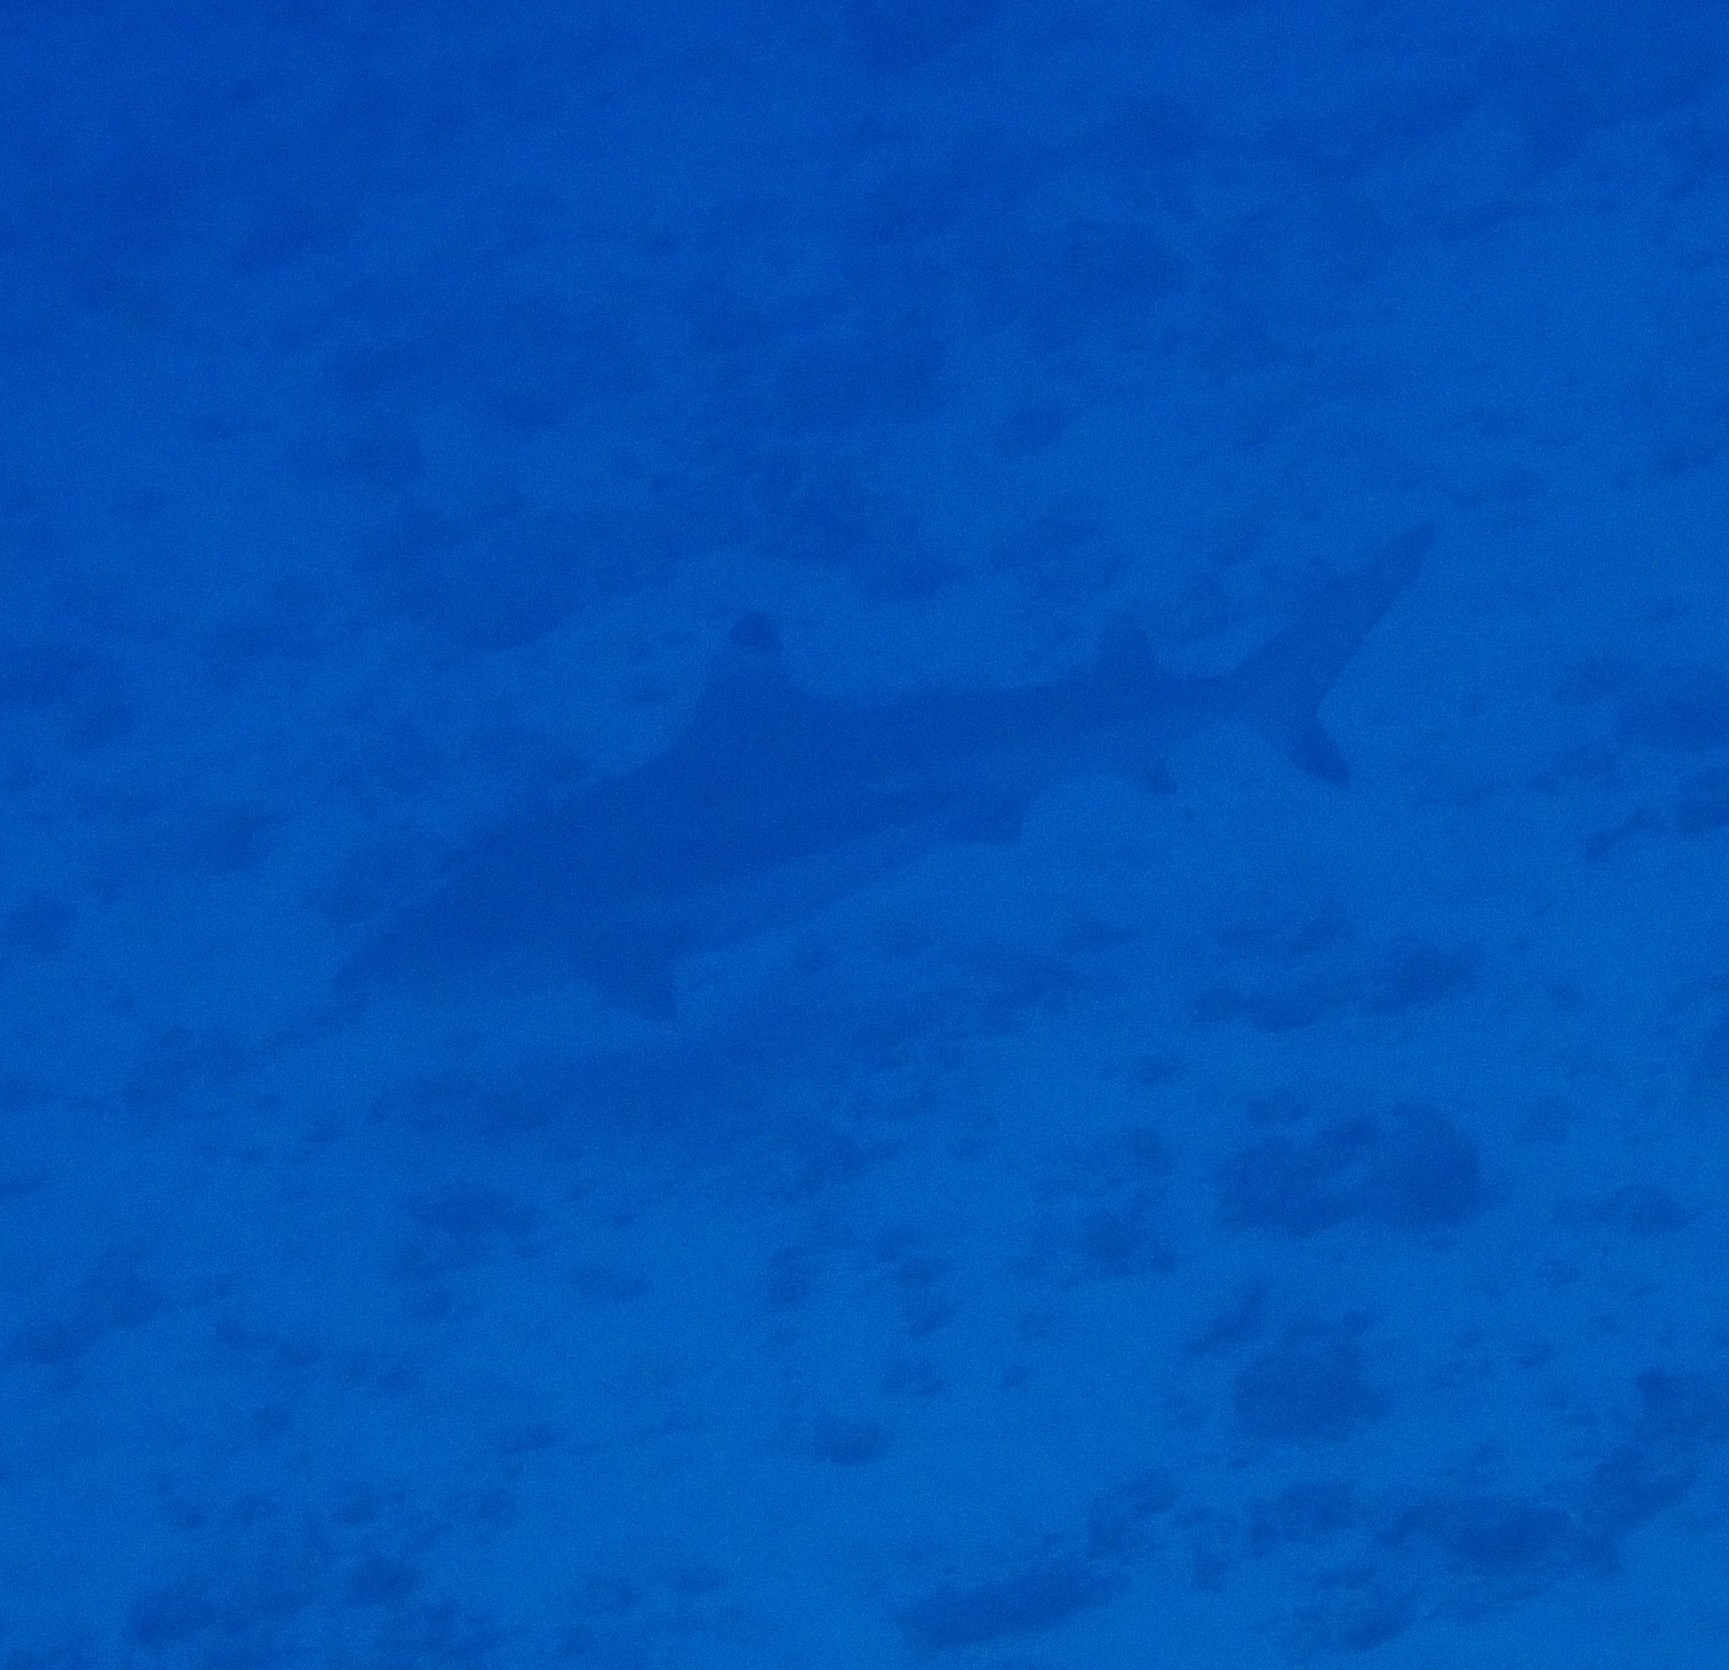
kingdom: Animalia
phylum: Chordata
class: Elasmobranchii
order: Carcharhiniformes
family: Carcharhinidae
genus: Carcharhinus
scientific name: Carcharhinus melanopterus
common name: Blacktip reef shark
